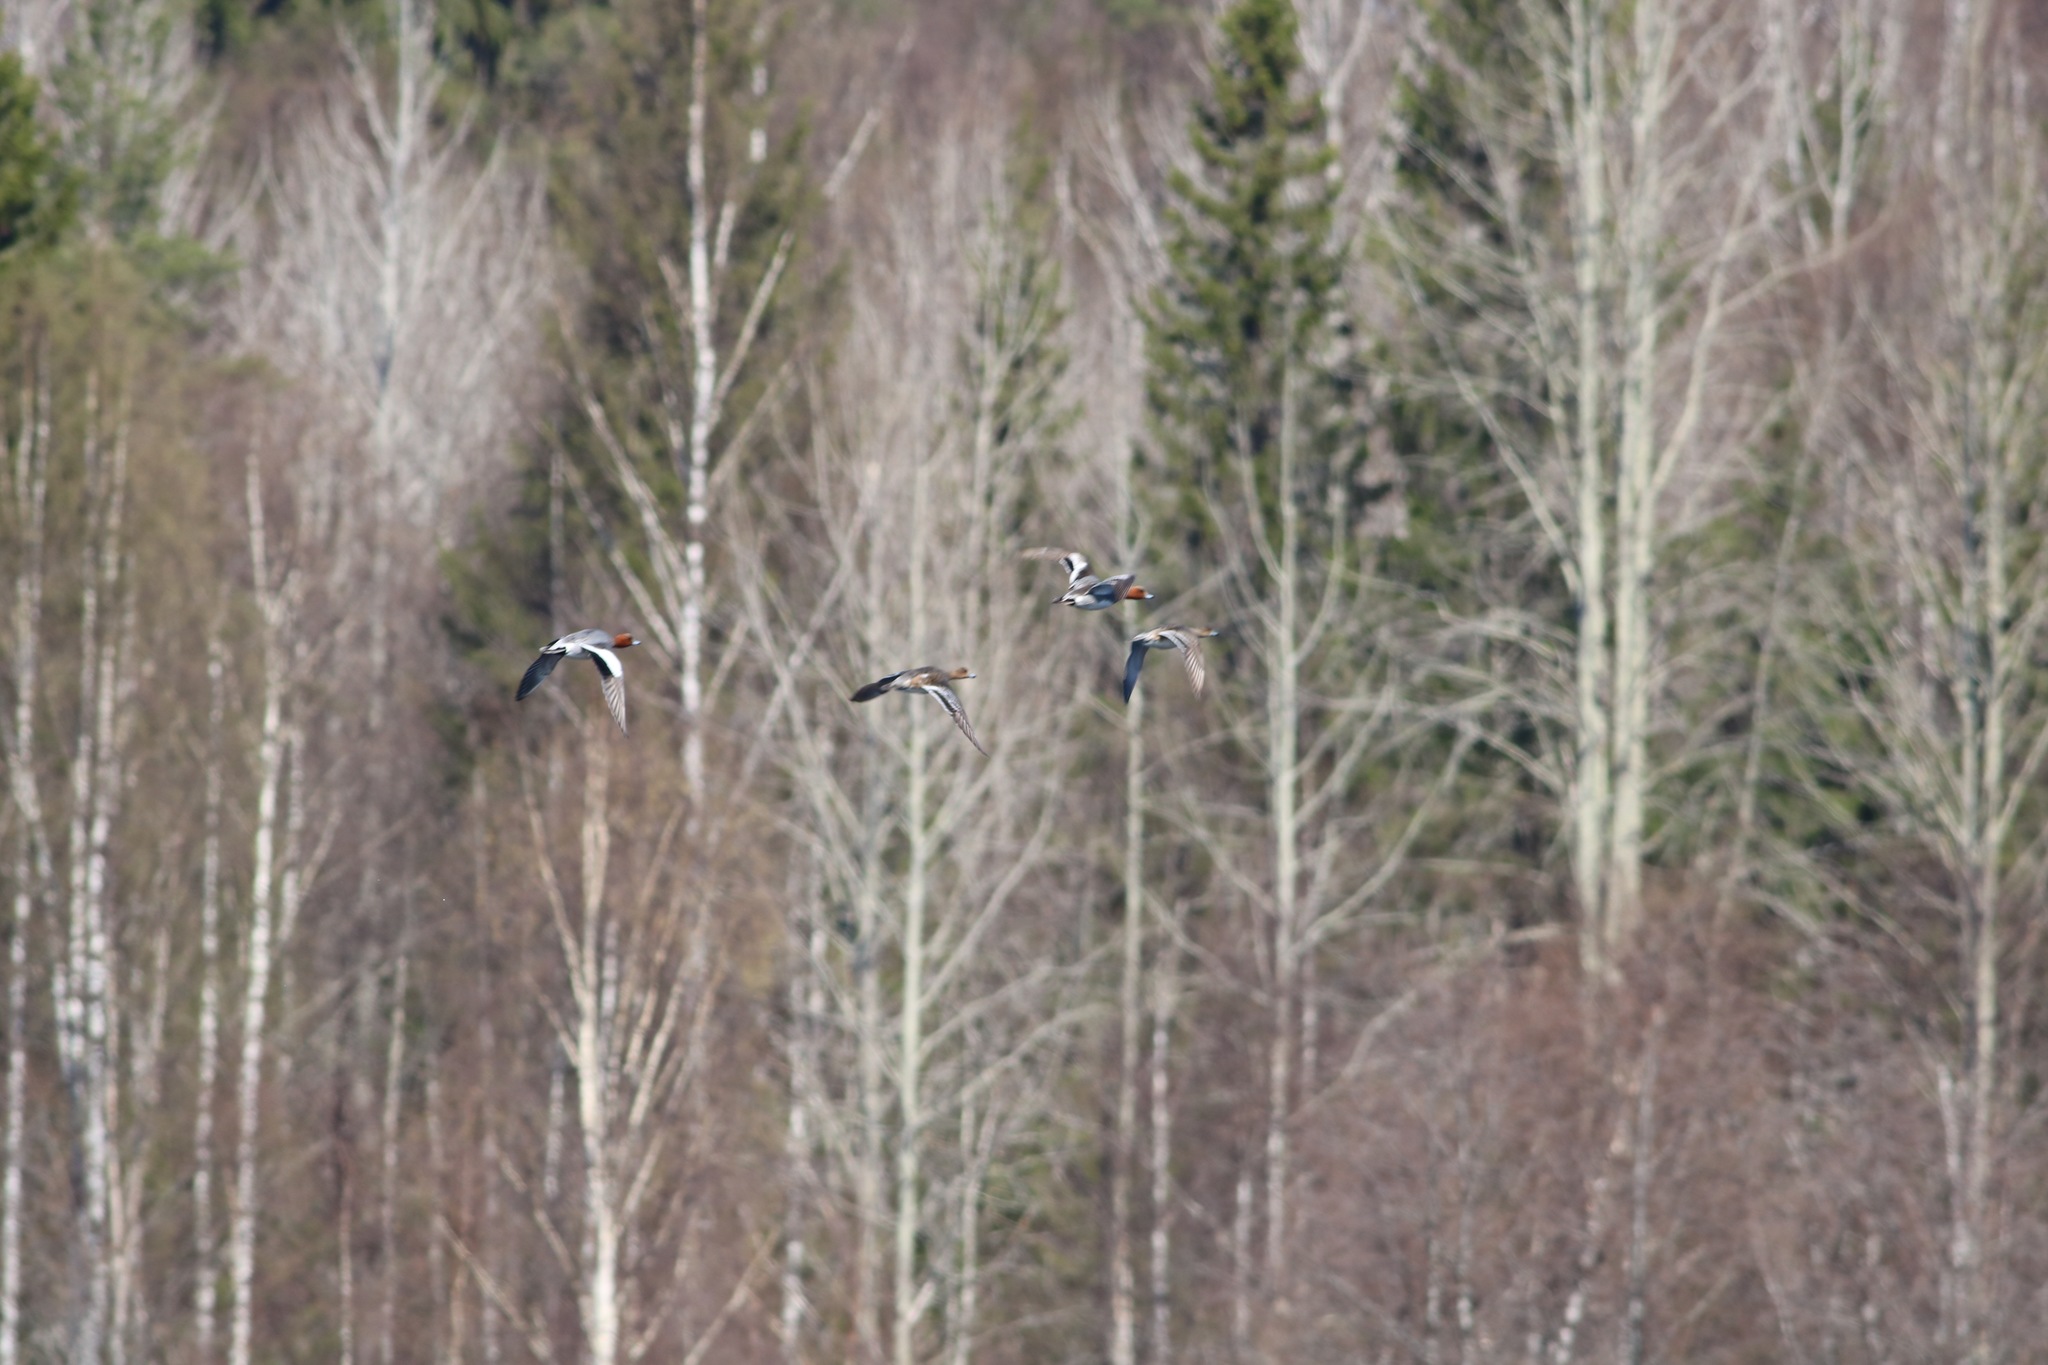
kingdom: Animalia
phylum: Chordata
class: Aves
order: Anseriformes
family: Anatidae
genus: Mareca
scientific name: Mareca penelope
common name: Eurasian wigeon
